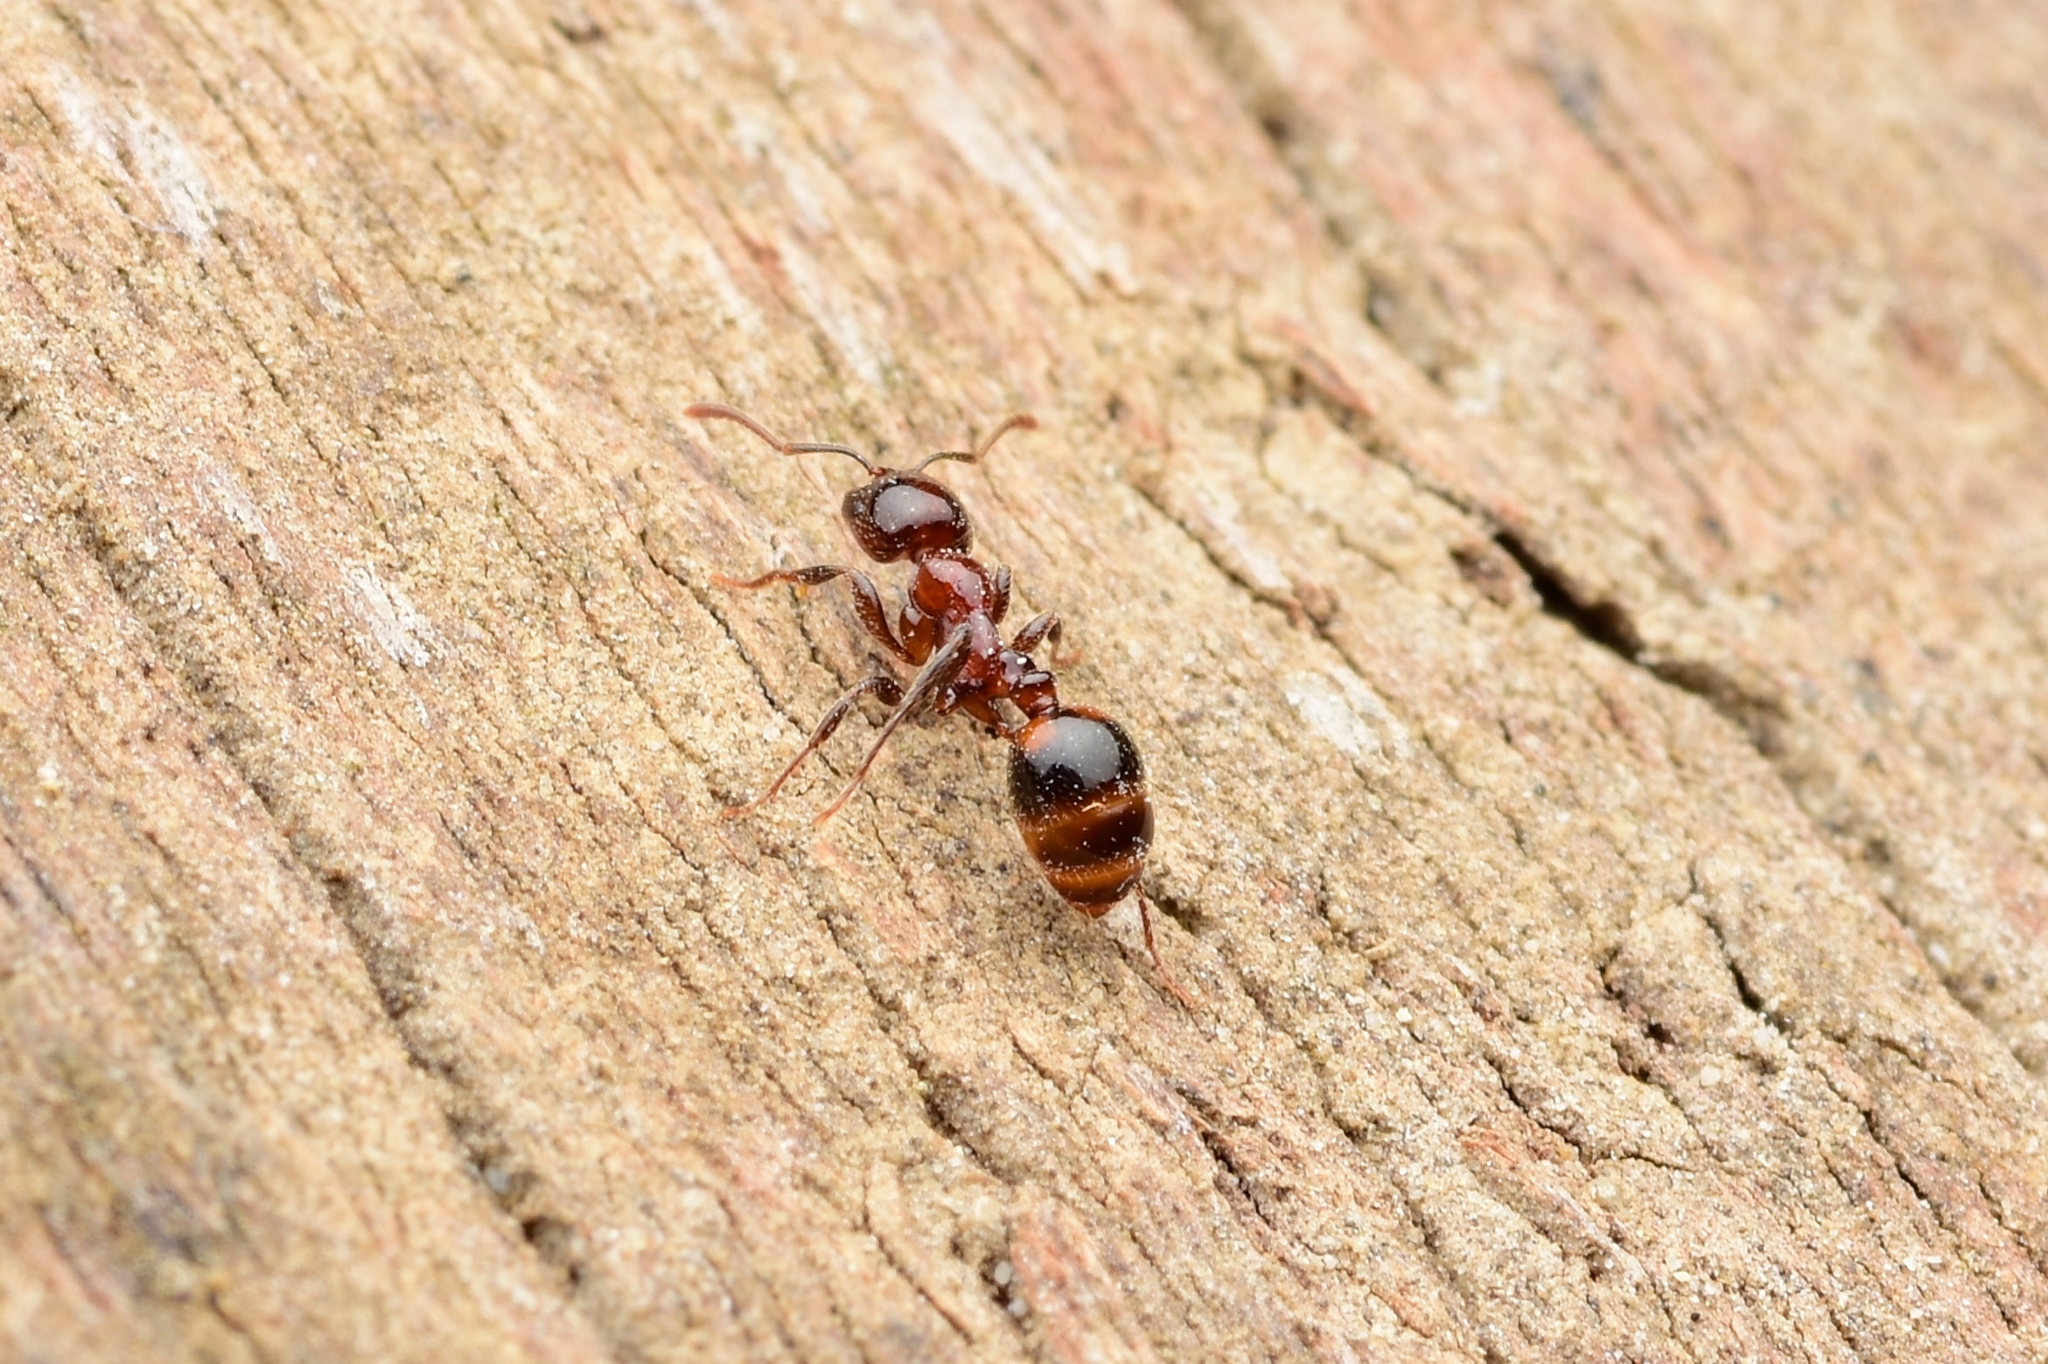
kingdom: Animalia
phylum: Arthropoda
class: Insecta
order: Hymenoptera
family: Formicidae
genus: Chelaner
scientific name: Chelaner
